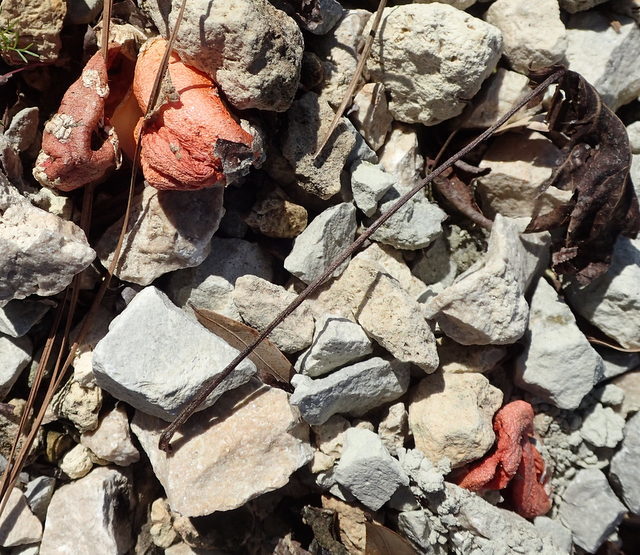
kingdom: Fungi
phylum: Basidiomycota
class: Agaricomycetes
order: Phallales
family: Phallaceae
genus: Clathrus
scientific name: Clathrus columnatus
